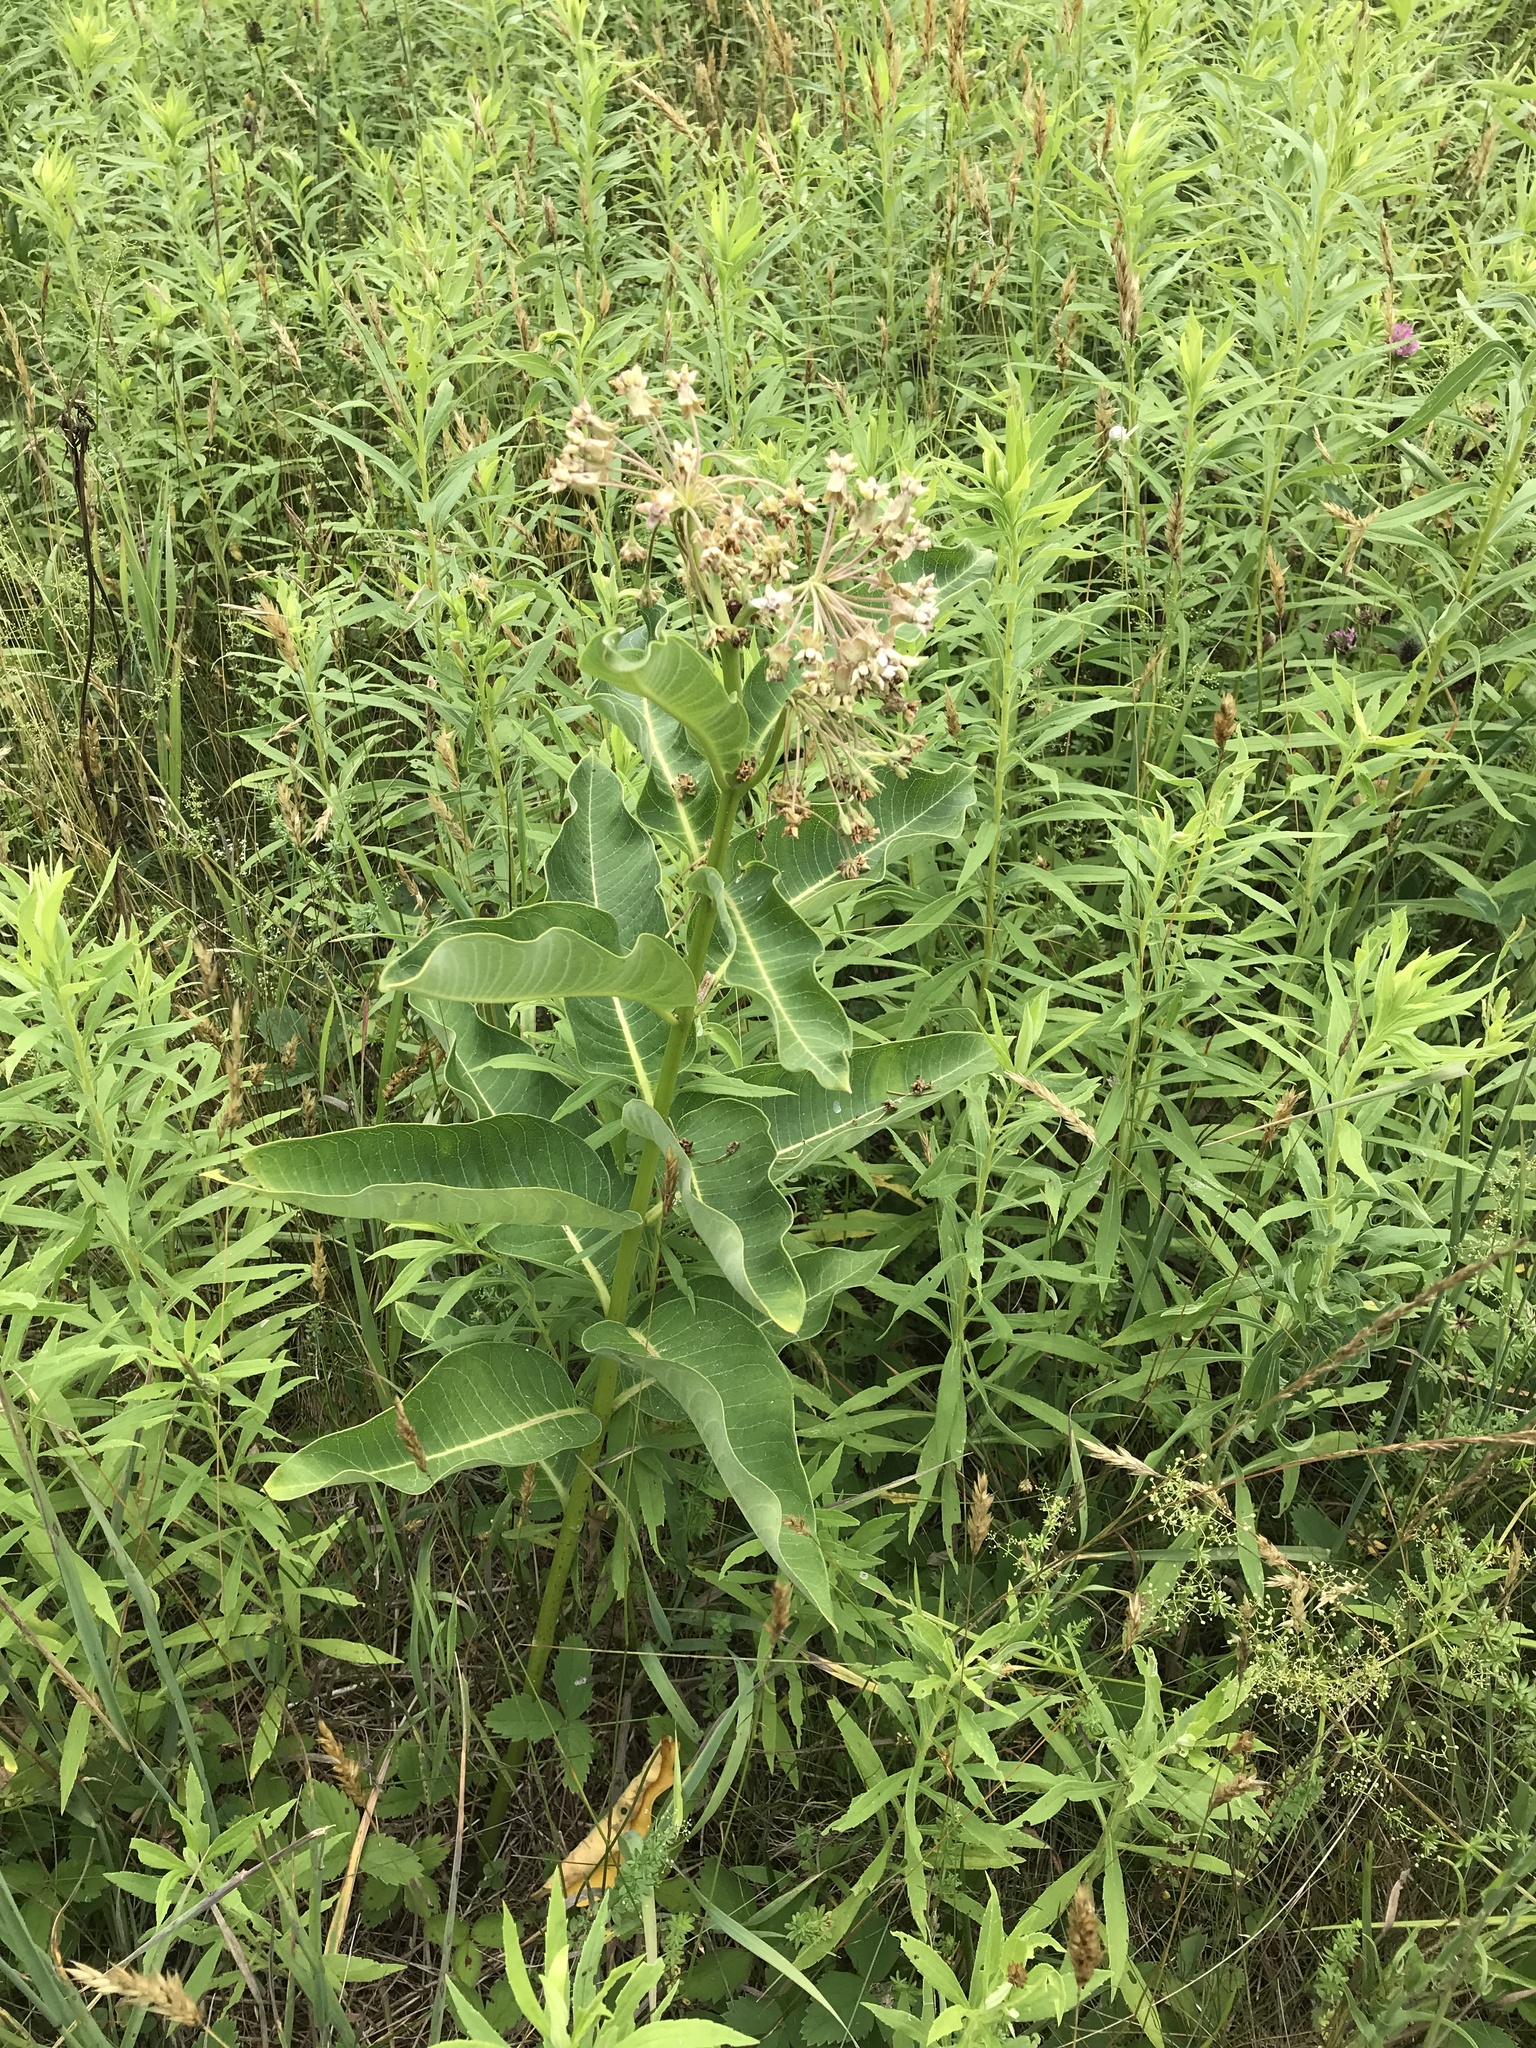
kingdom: Plantae
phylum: Tracheophyta
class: Magnoliopsida
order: Gentianales
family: Apocynaceae
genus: Asclepias
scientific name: Asclepias syriaca
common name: Common milkweed
